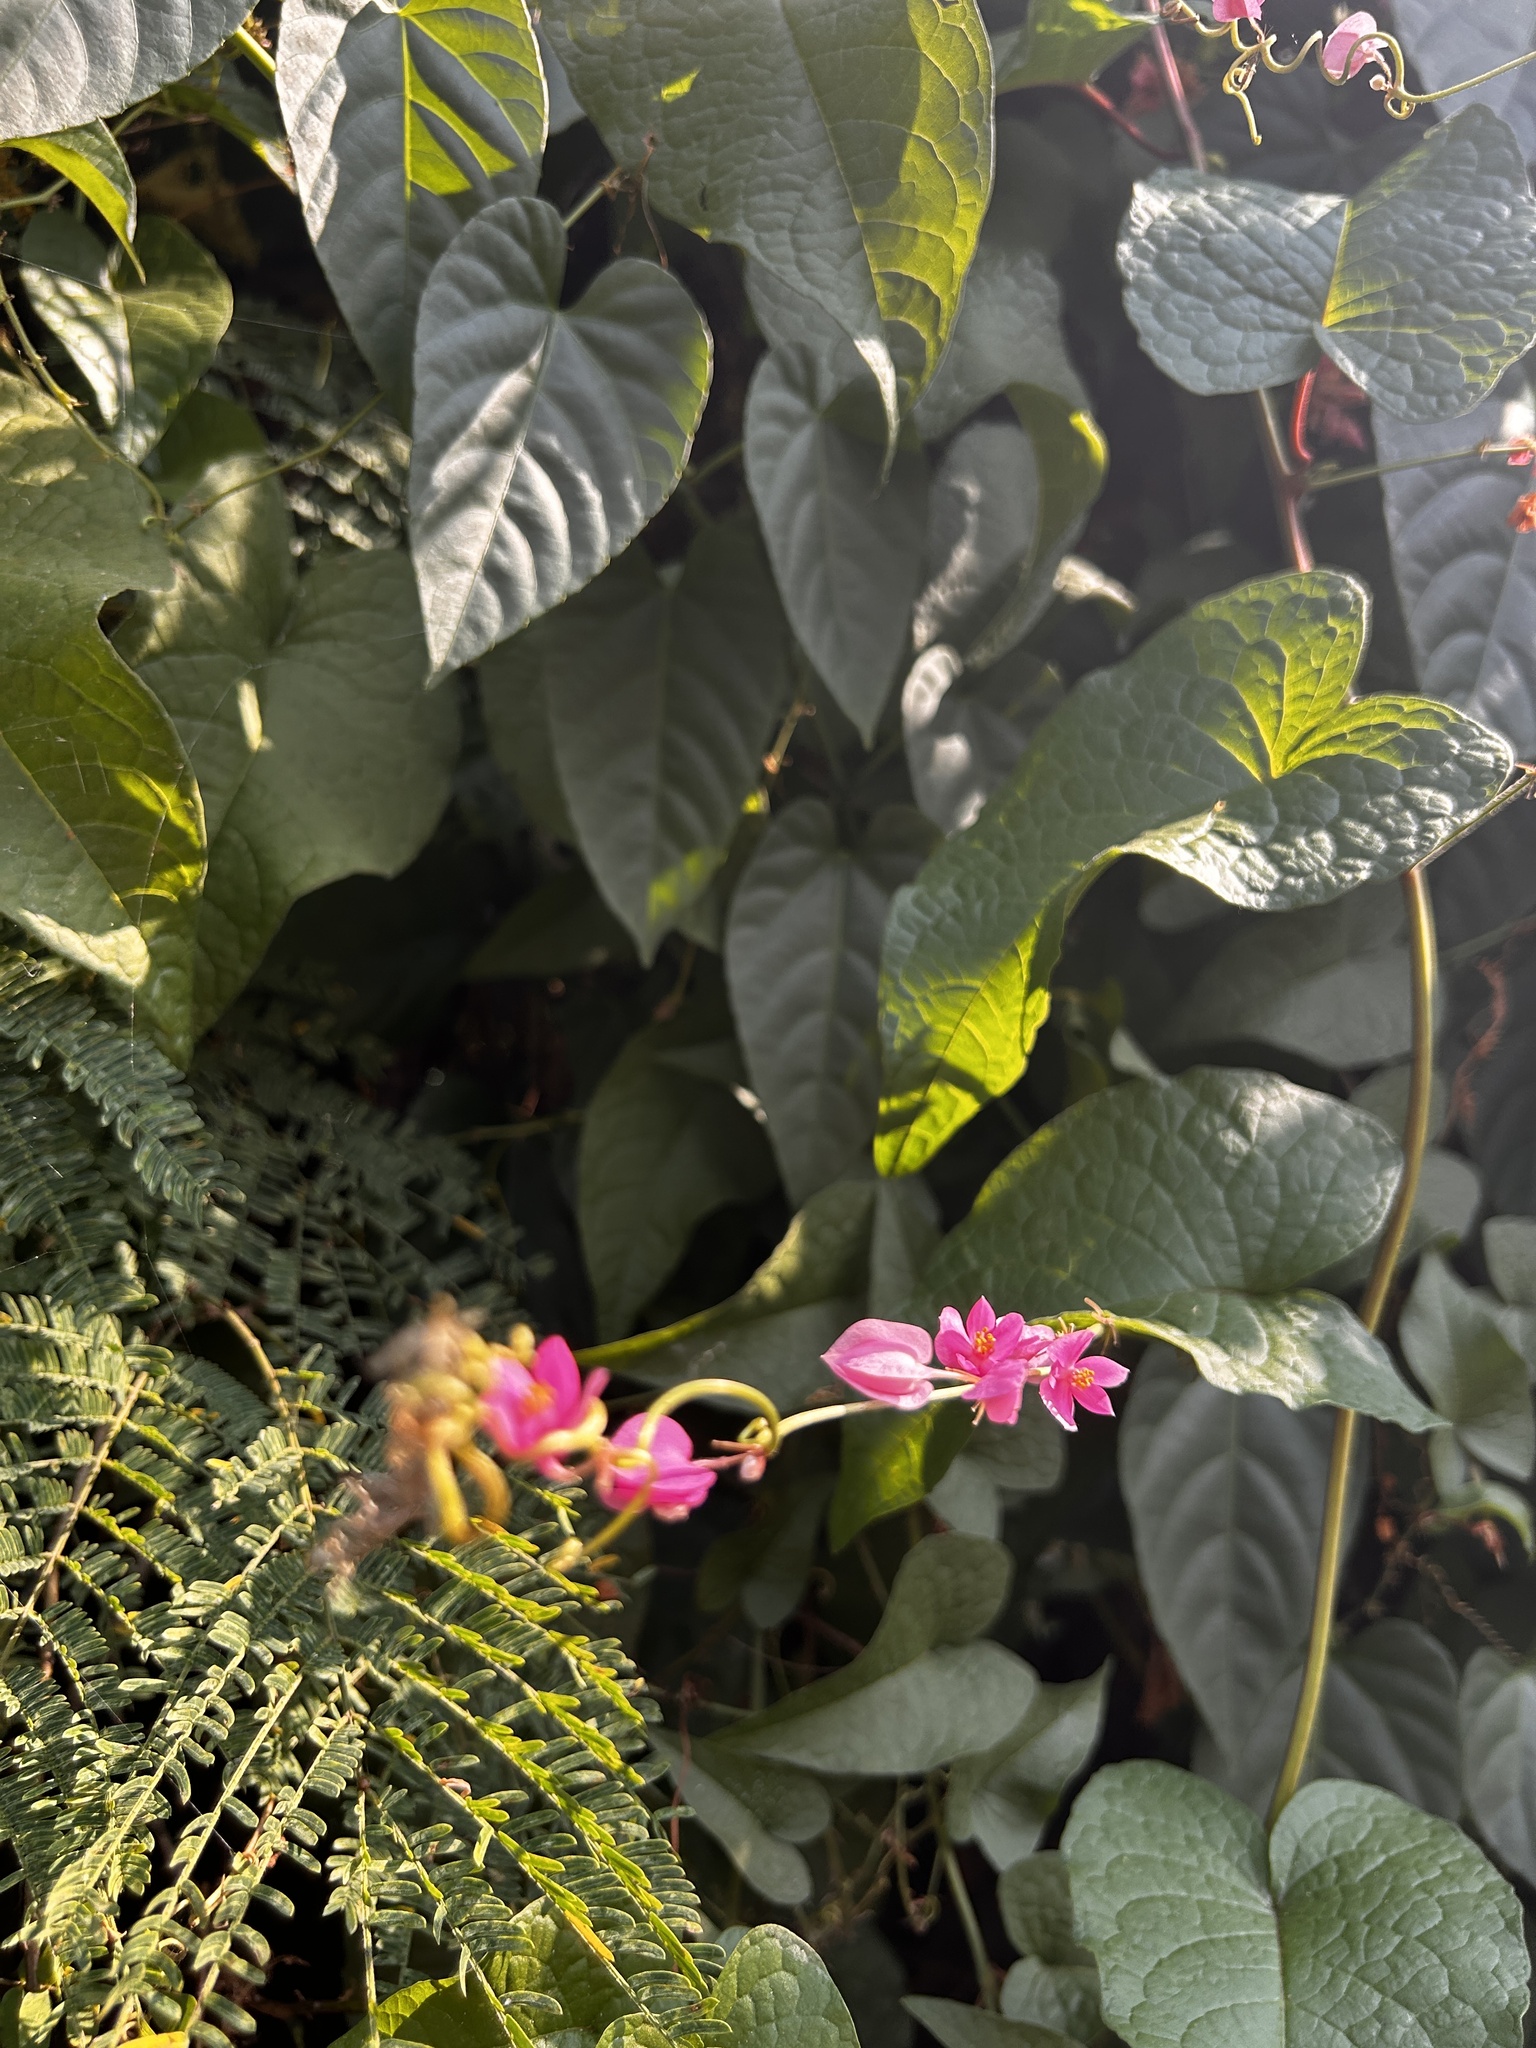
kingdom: Plantae
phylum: Tracheophyta
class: Magnoliopsida
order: Caryophyllales
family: Polygonaceae
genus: Antigonon
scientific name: Antigonon leptopus
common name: Coral vine
